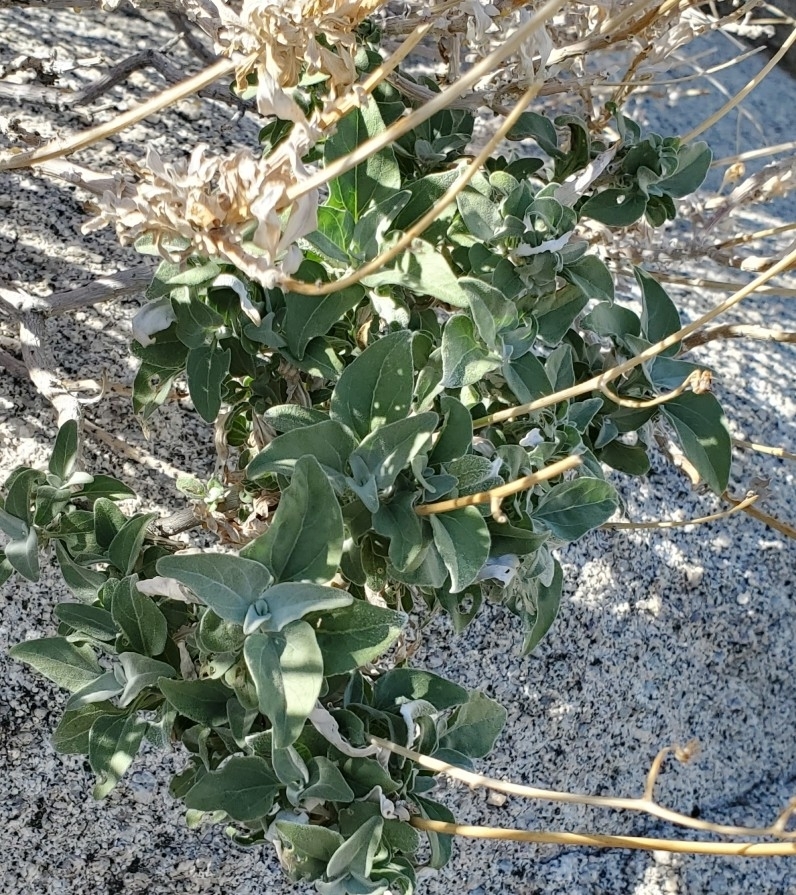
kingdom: Plantae
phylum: Tracheophyta
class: Magnoliopsida
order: Asterales
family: Asteraceae
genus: Encelia
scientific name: Encelia farinosa
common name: Brittlebush
